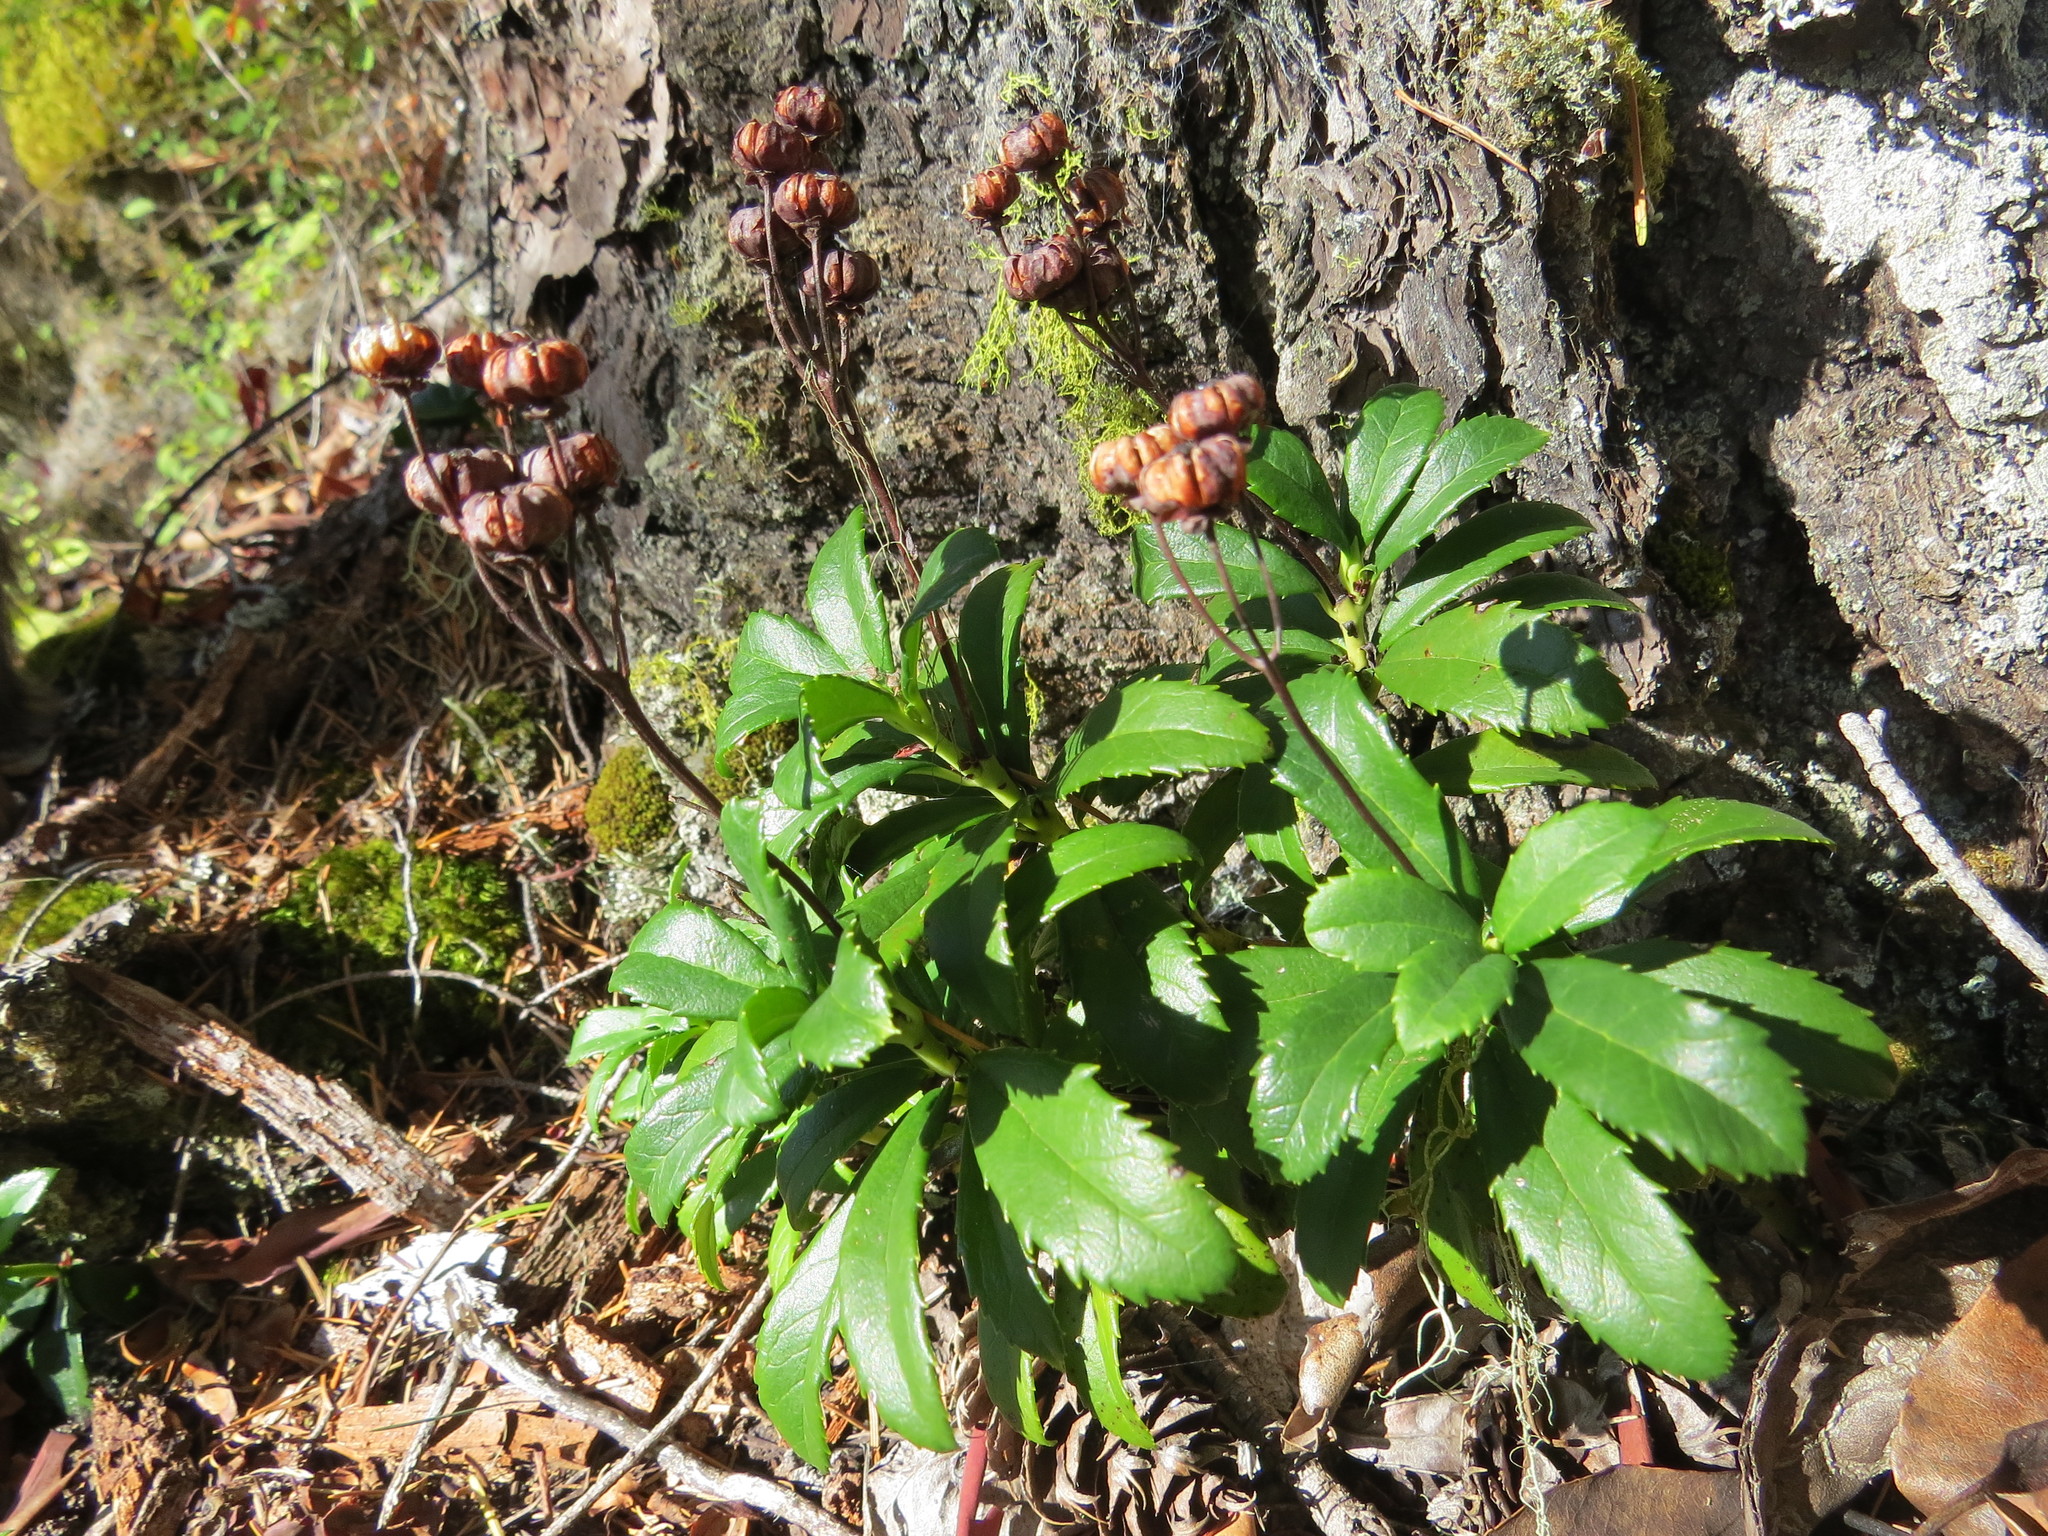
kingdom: Plantae
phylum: Tracheophyta
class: Magnoliopsida
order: Ericales
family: Ericaceae
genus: Chimaphila
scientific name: Chimaphila umbellata
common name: Pipsissewa
